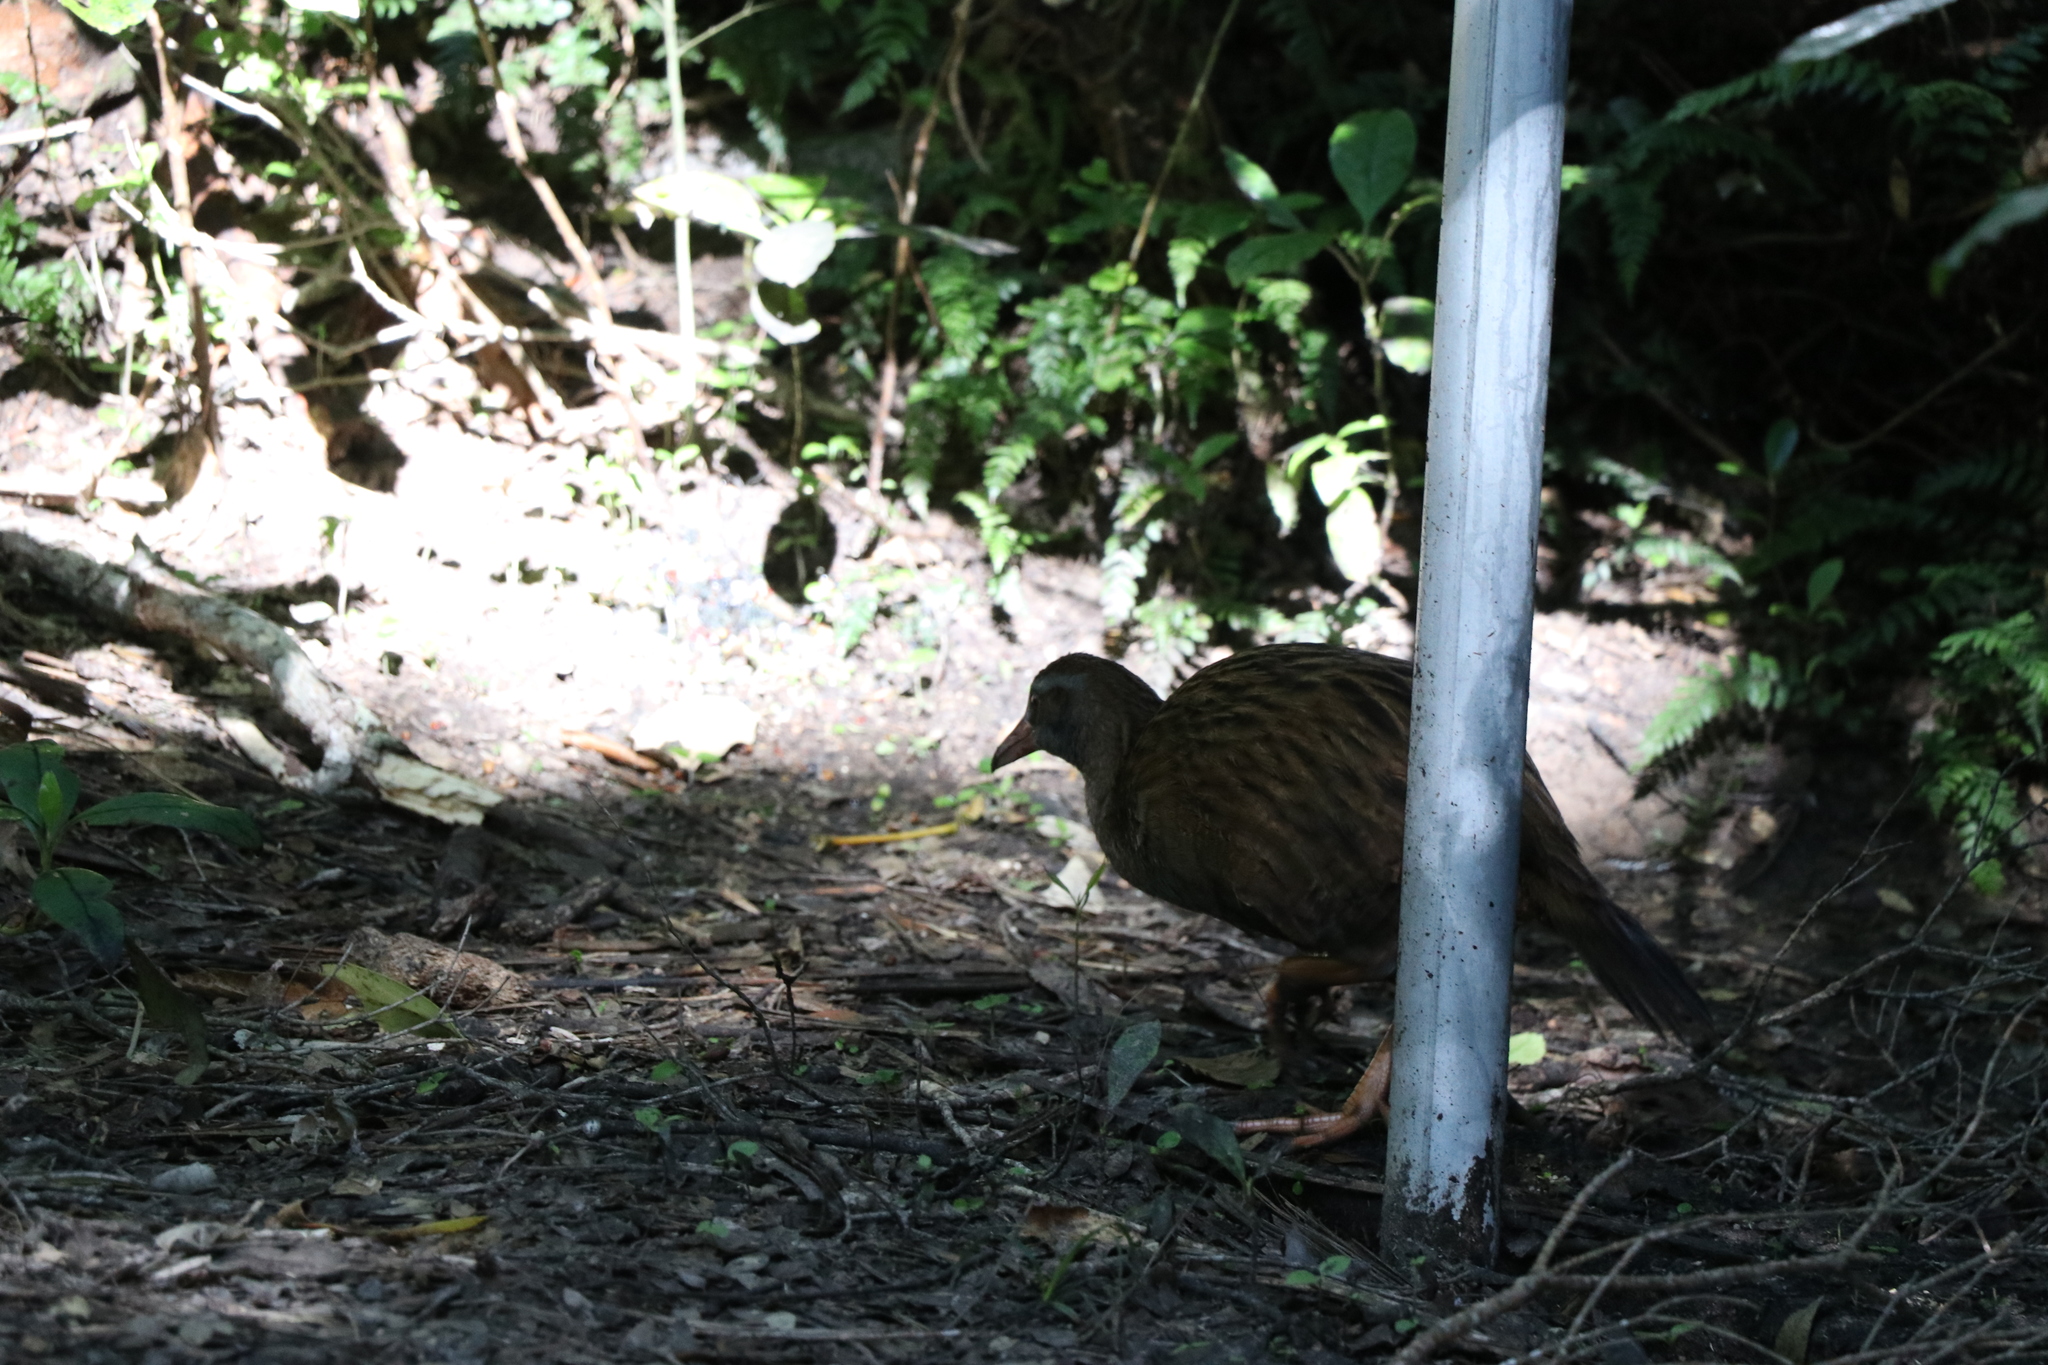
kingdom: Animalia
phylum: Chordata
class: Aves
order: Gruiformes
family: Rallidae
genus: Gallirallus
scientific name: Gallirallus australis
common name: Weka
